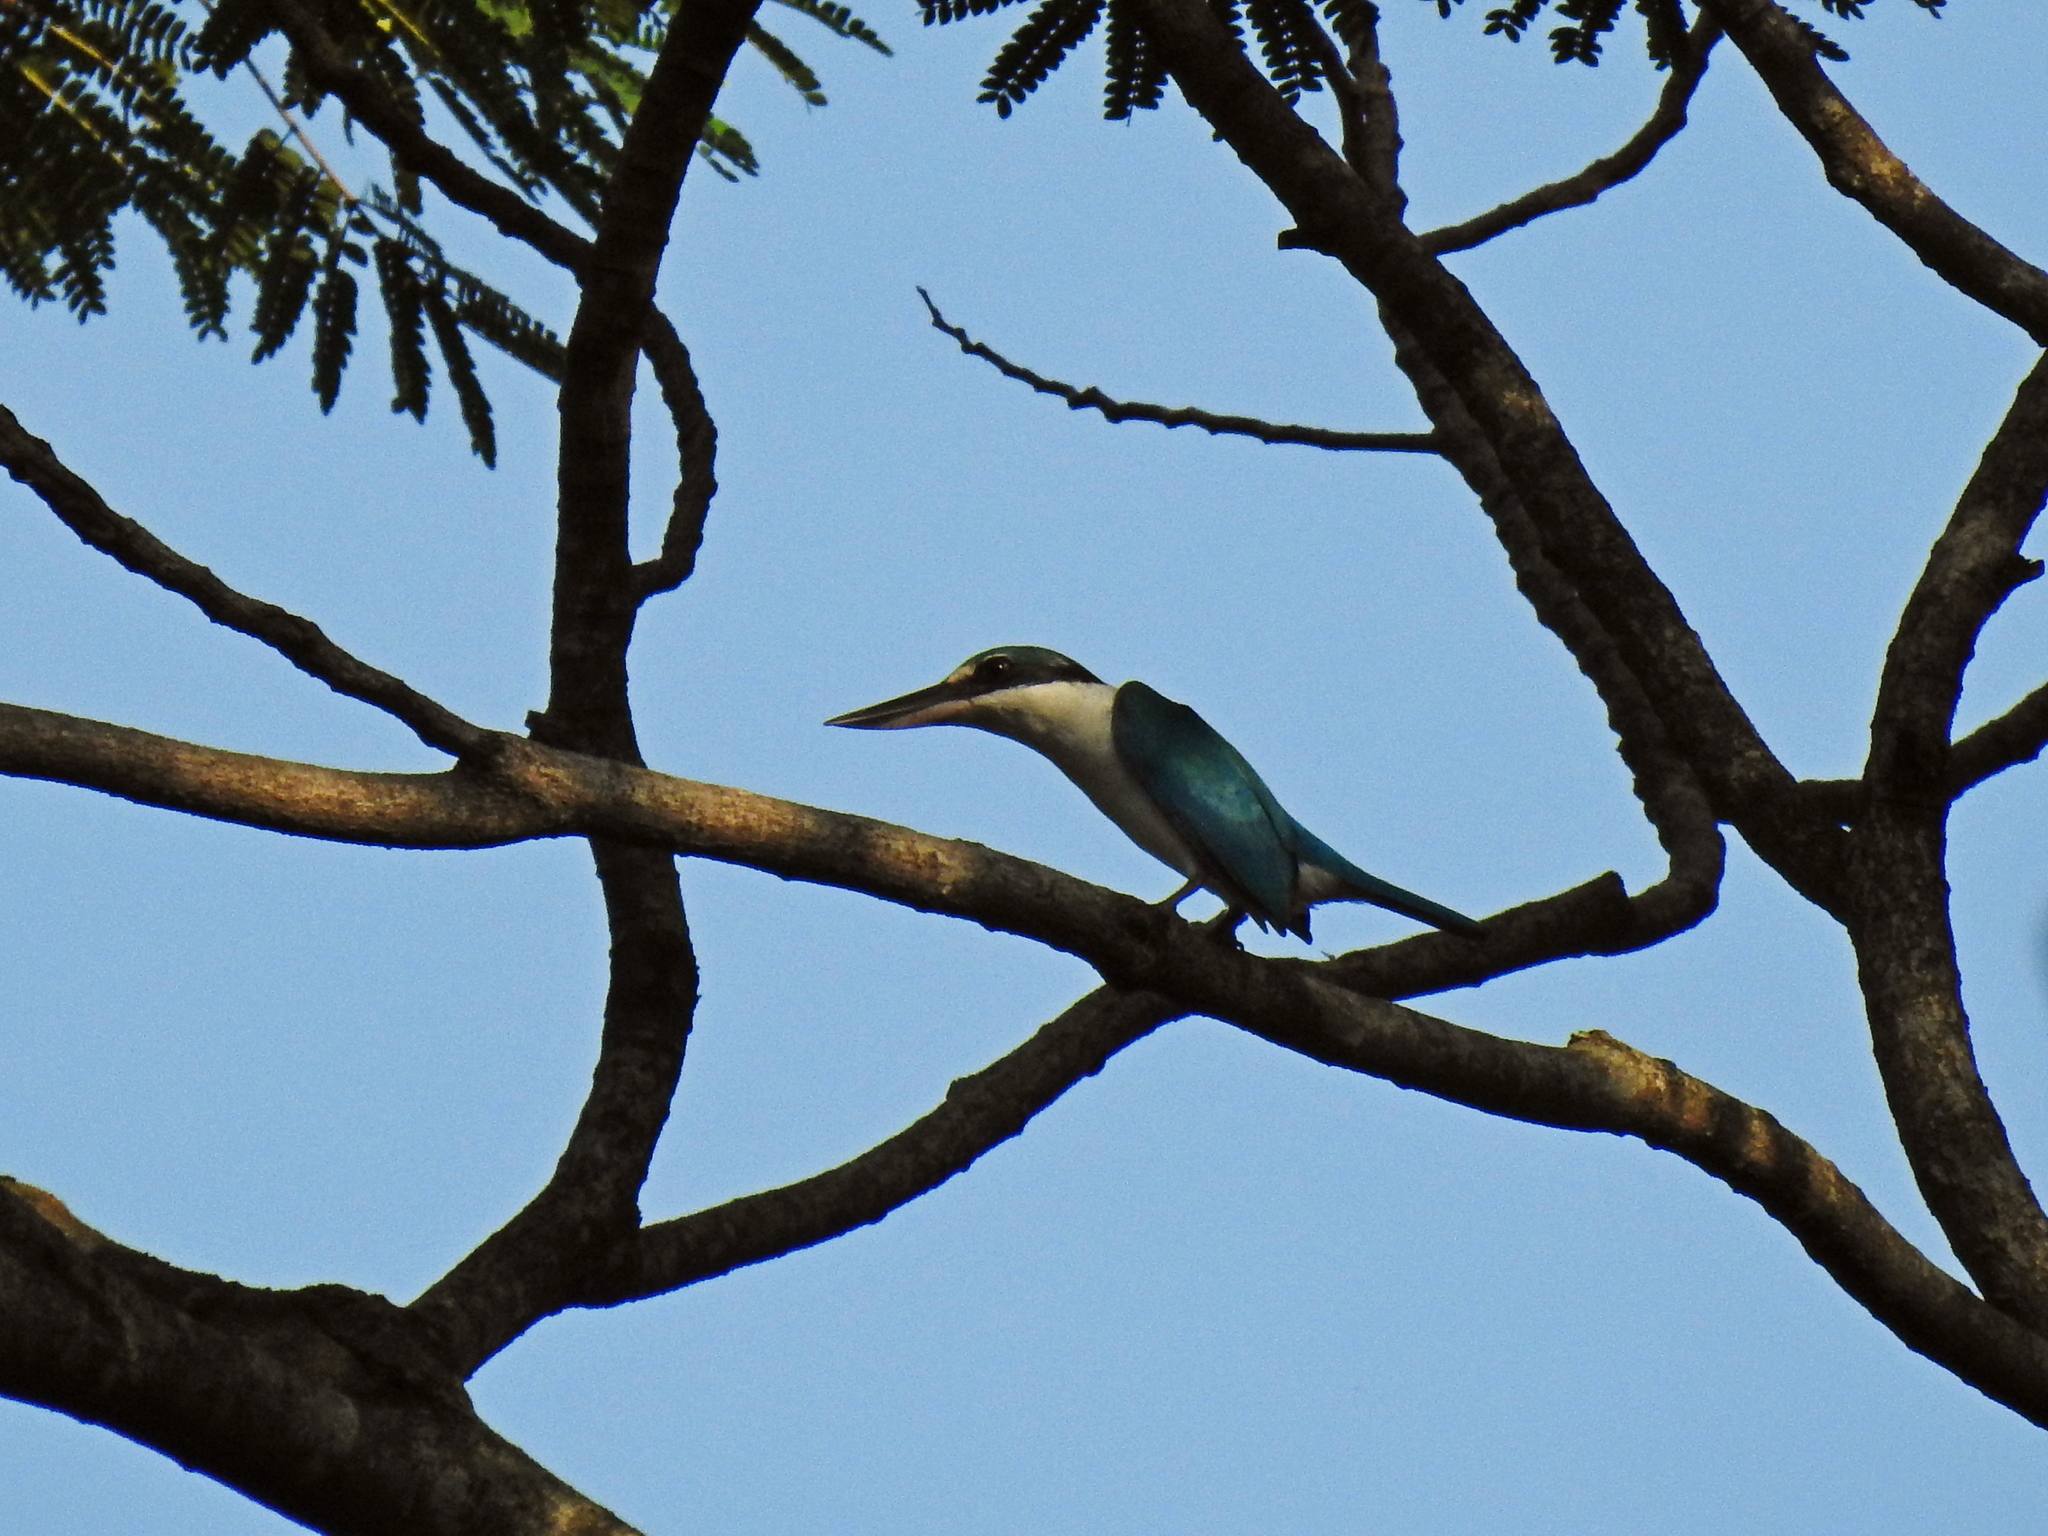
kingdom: Animalia
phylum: Chordata
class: Aves
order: Coraciiformes
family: Alcedinidae
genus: Todiramphus
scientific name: Todiramphus chloris
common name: Collared kingfisher
